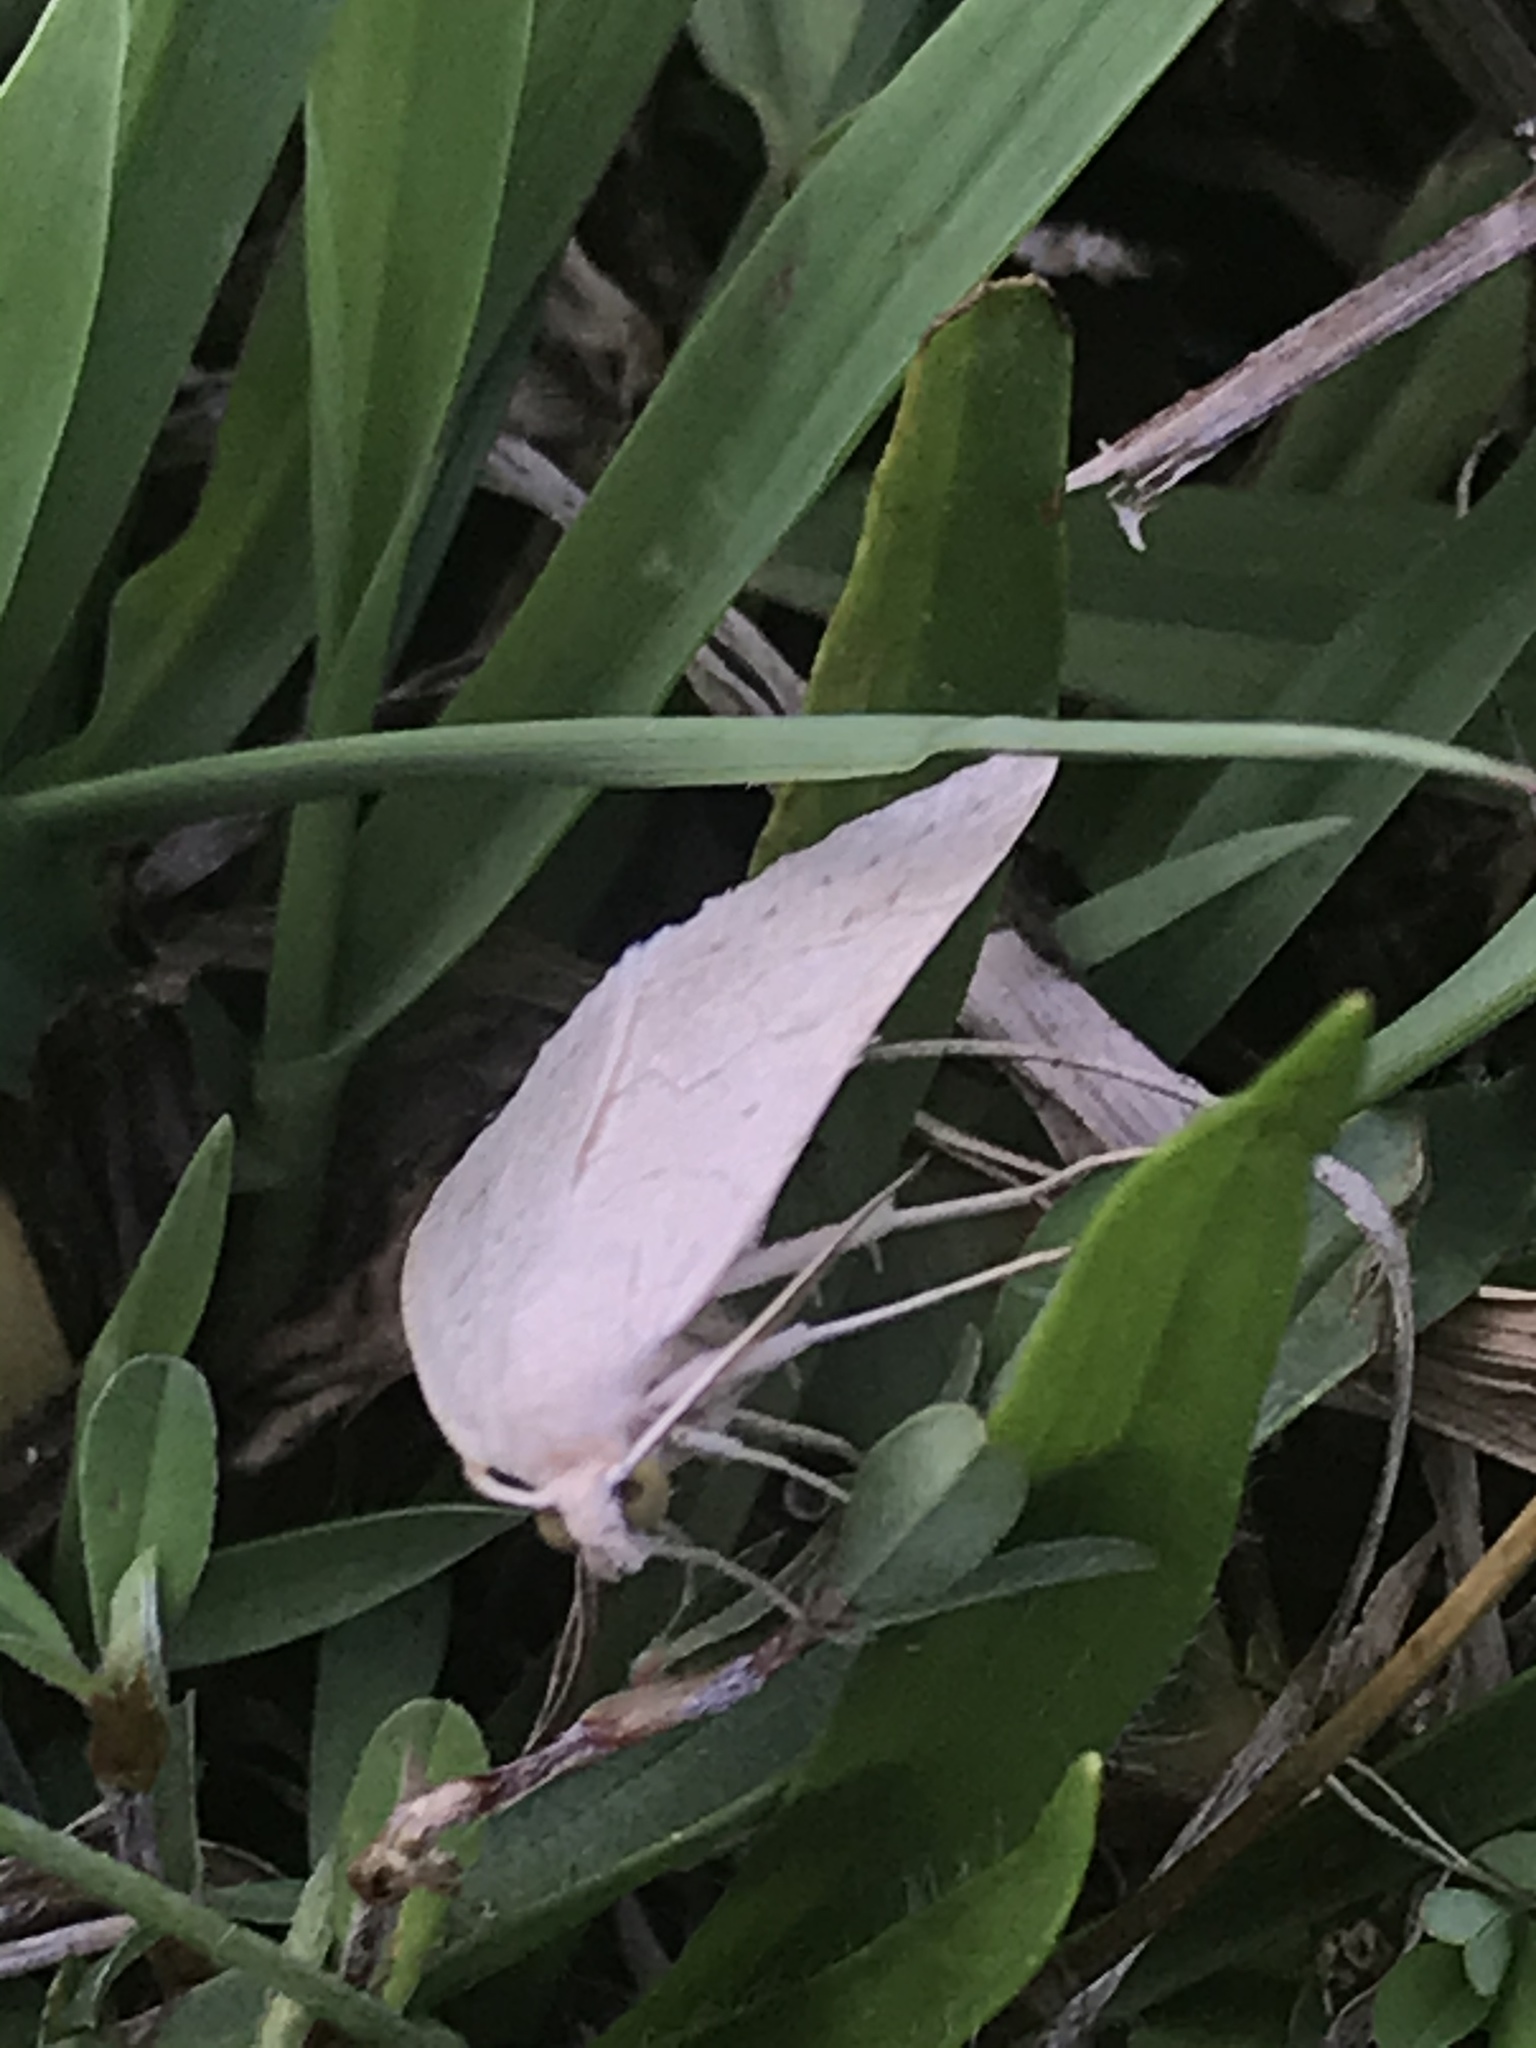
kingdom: Animalia
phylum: Arthropoda
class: Insecta
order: Lepidoptera
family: Erebidae
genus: Caenurgia
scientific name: Caenurgia chloropha
